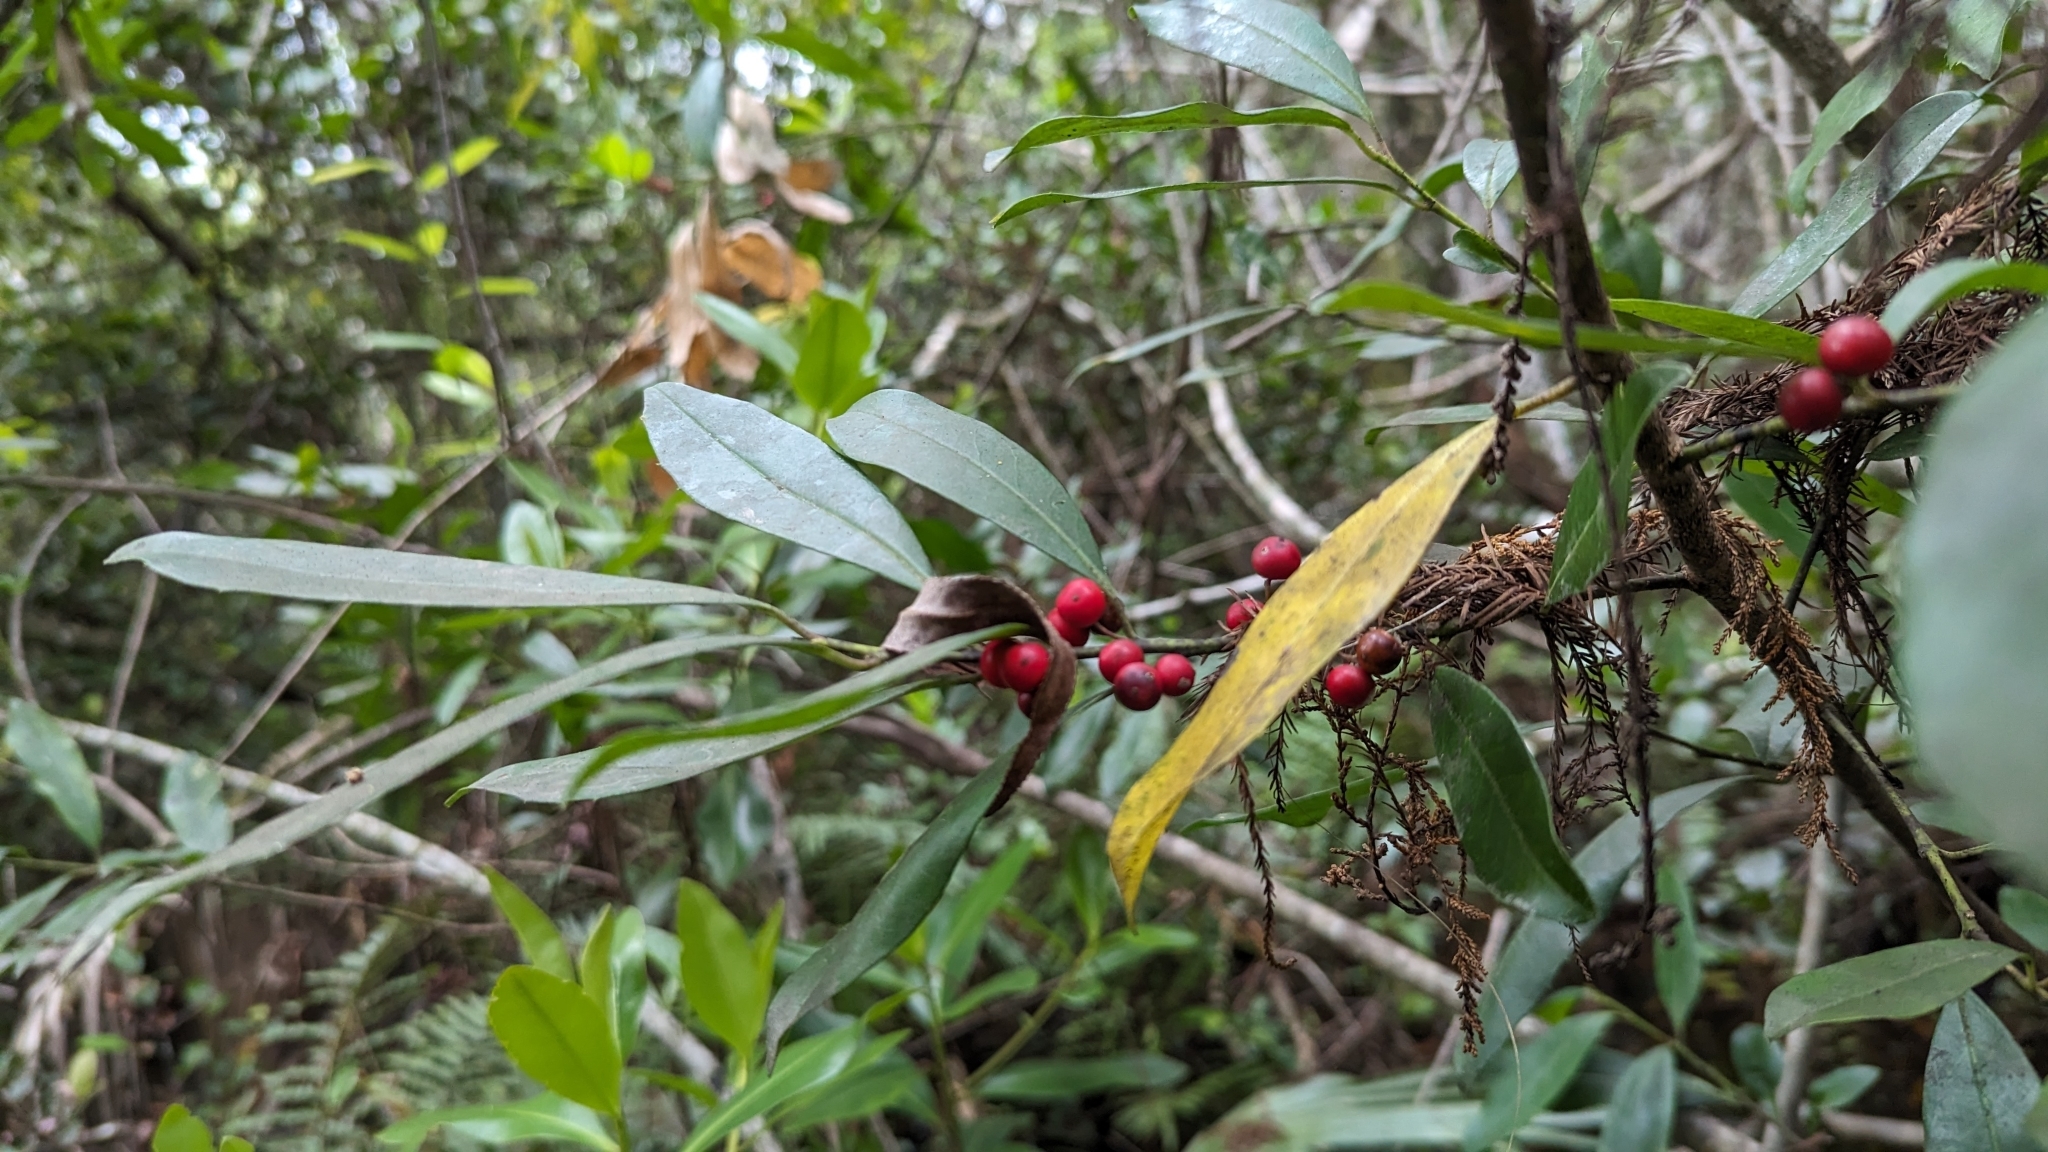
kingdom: Plantae
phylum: Tracheophyta
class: Magnoliopsida
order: Aquifoliales
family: Aquifoliaceae
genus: Ilex
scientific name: Ilex cassine
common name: Dahoon
